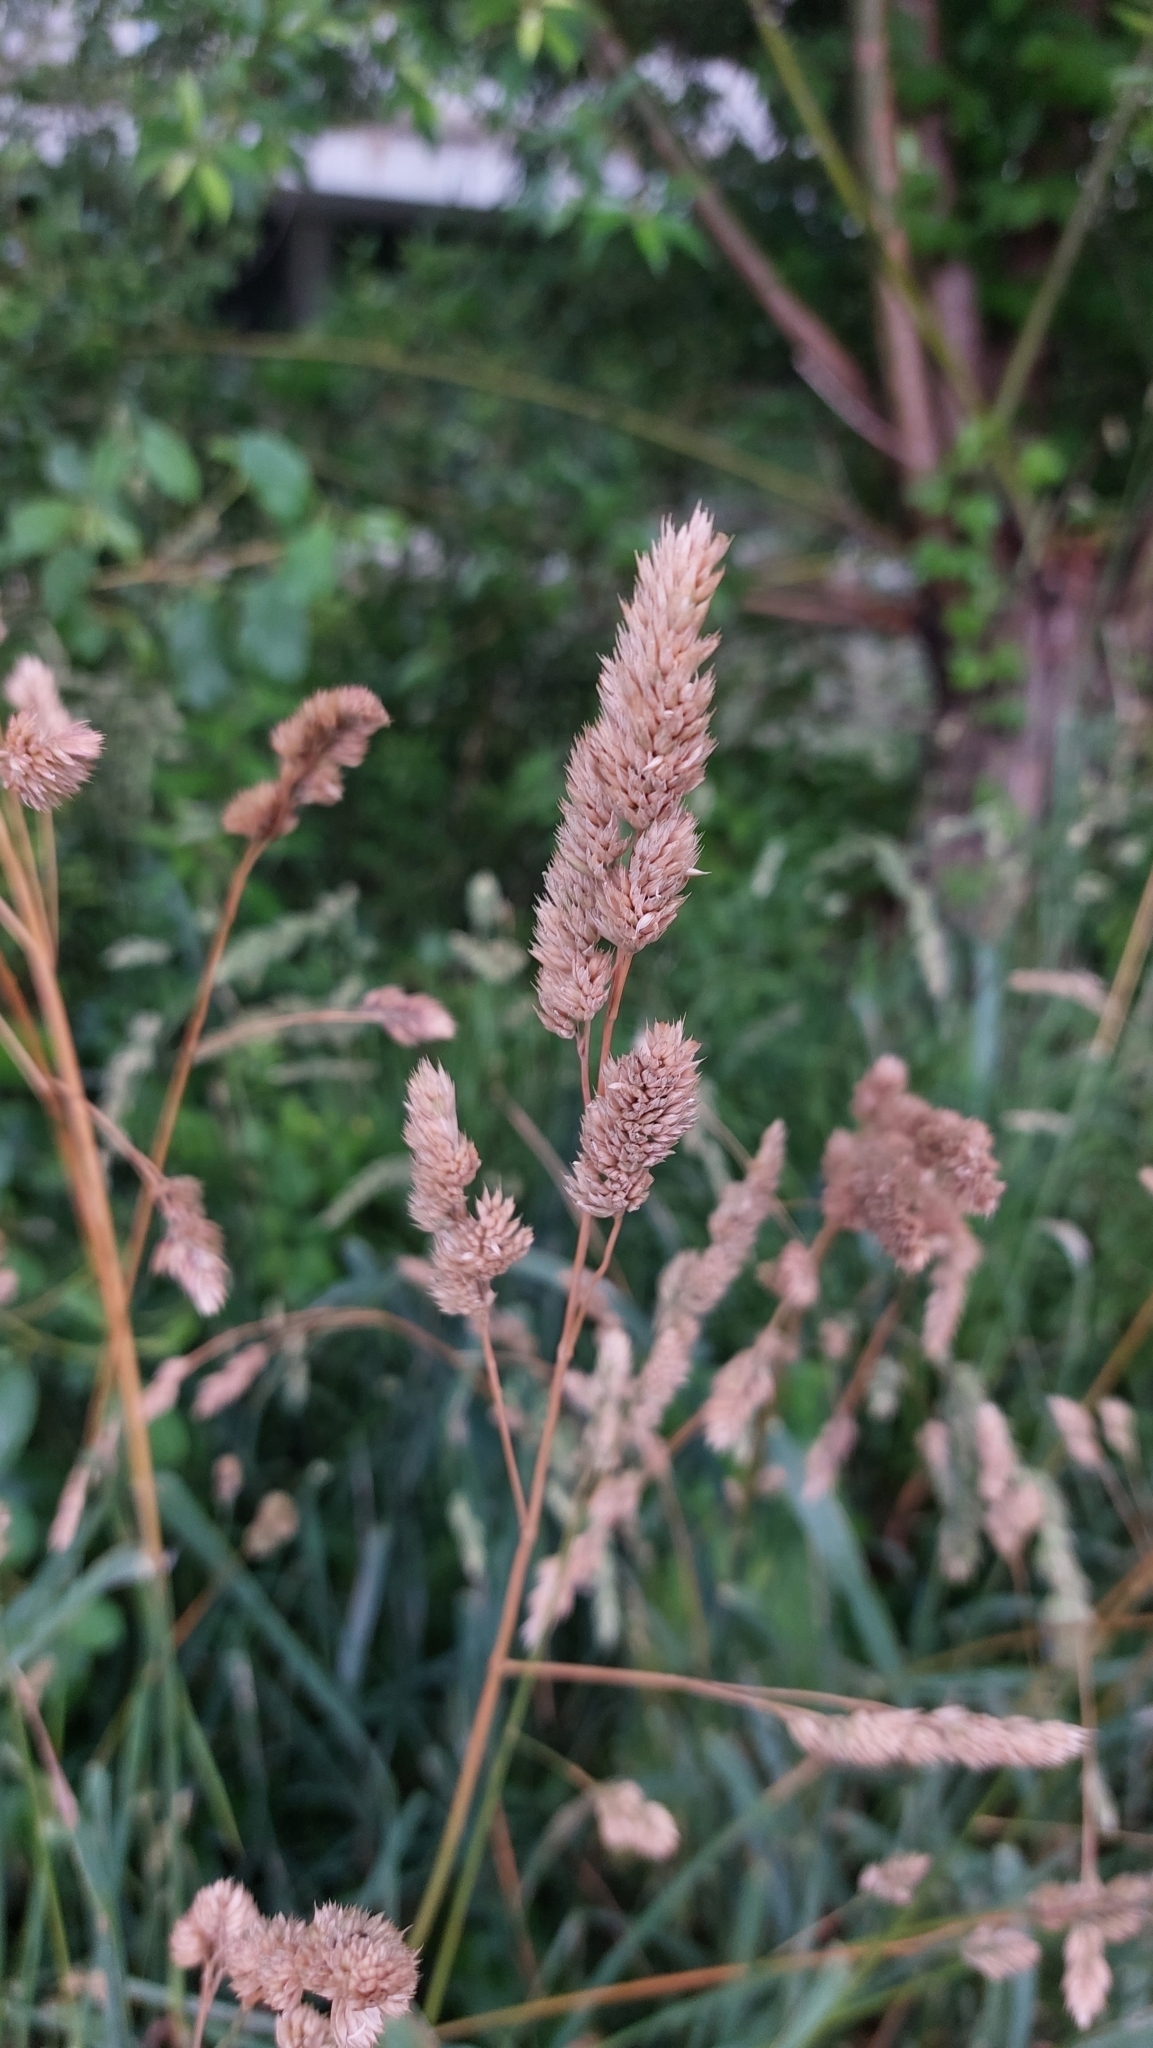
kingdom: Plantae
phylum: Tracheophyta
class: Liliopsida
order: Poales
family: Poaceae
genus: Dactylis
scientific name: Dactylis glomerata
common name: Orchardgrass
